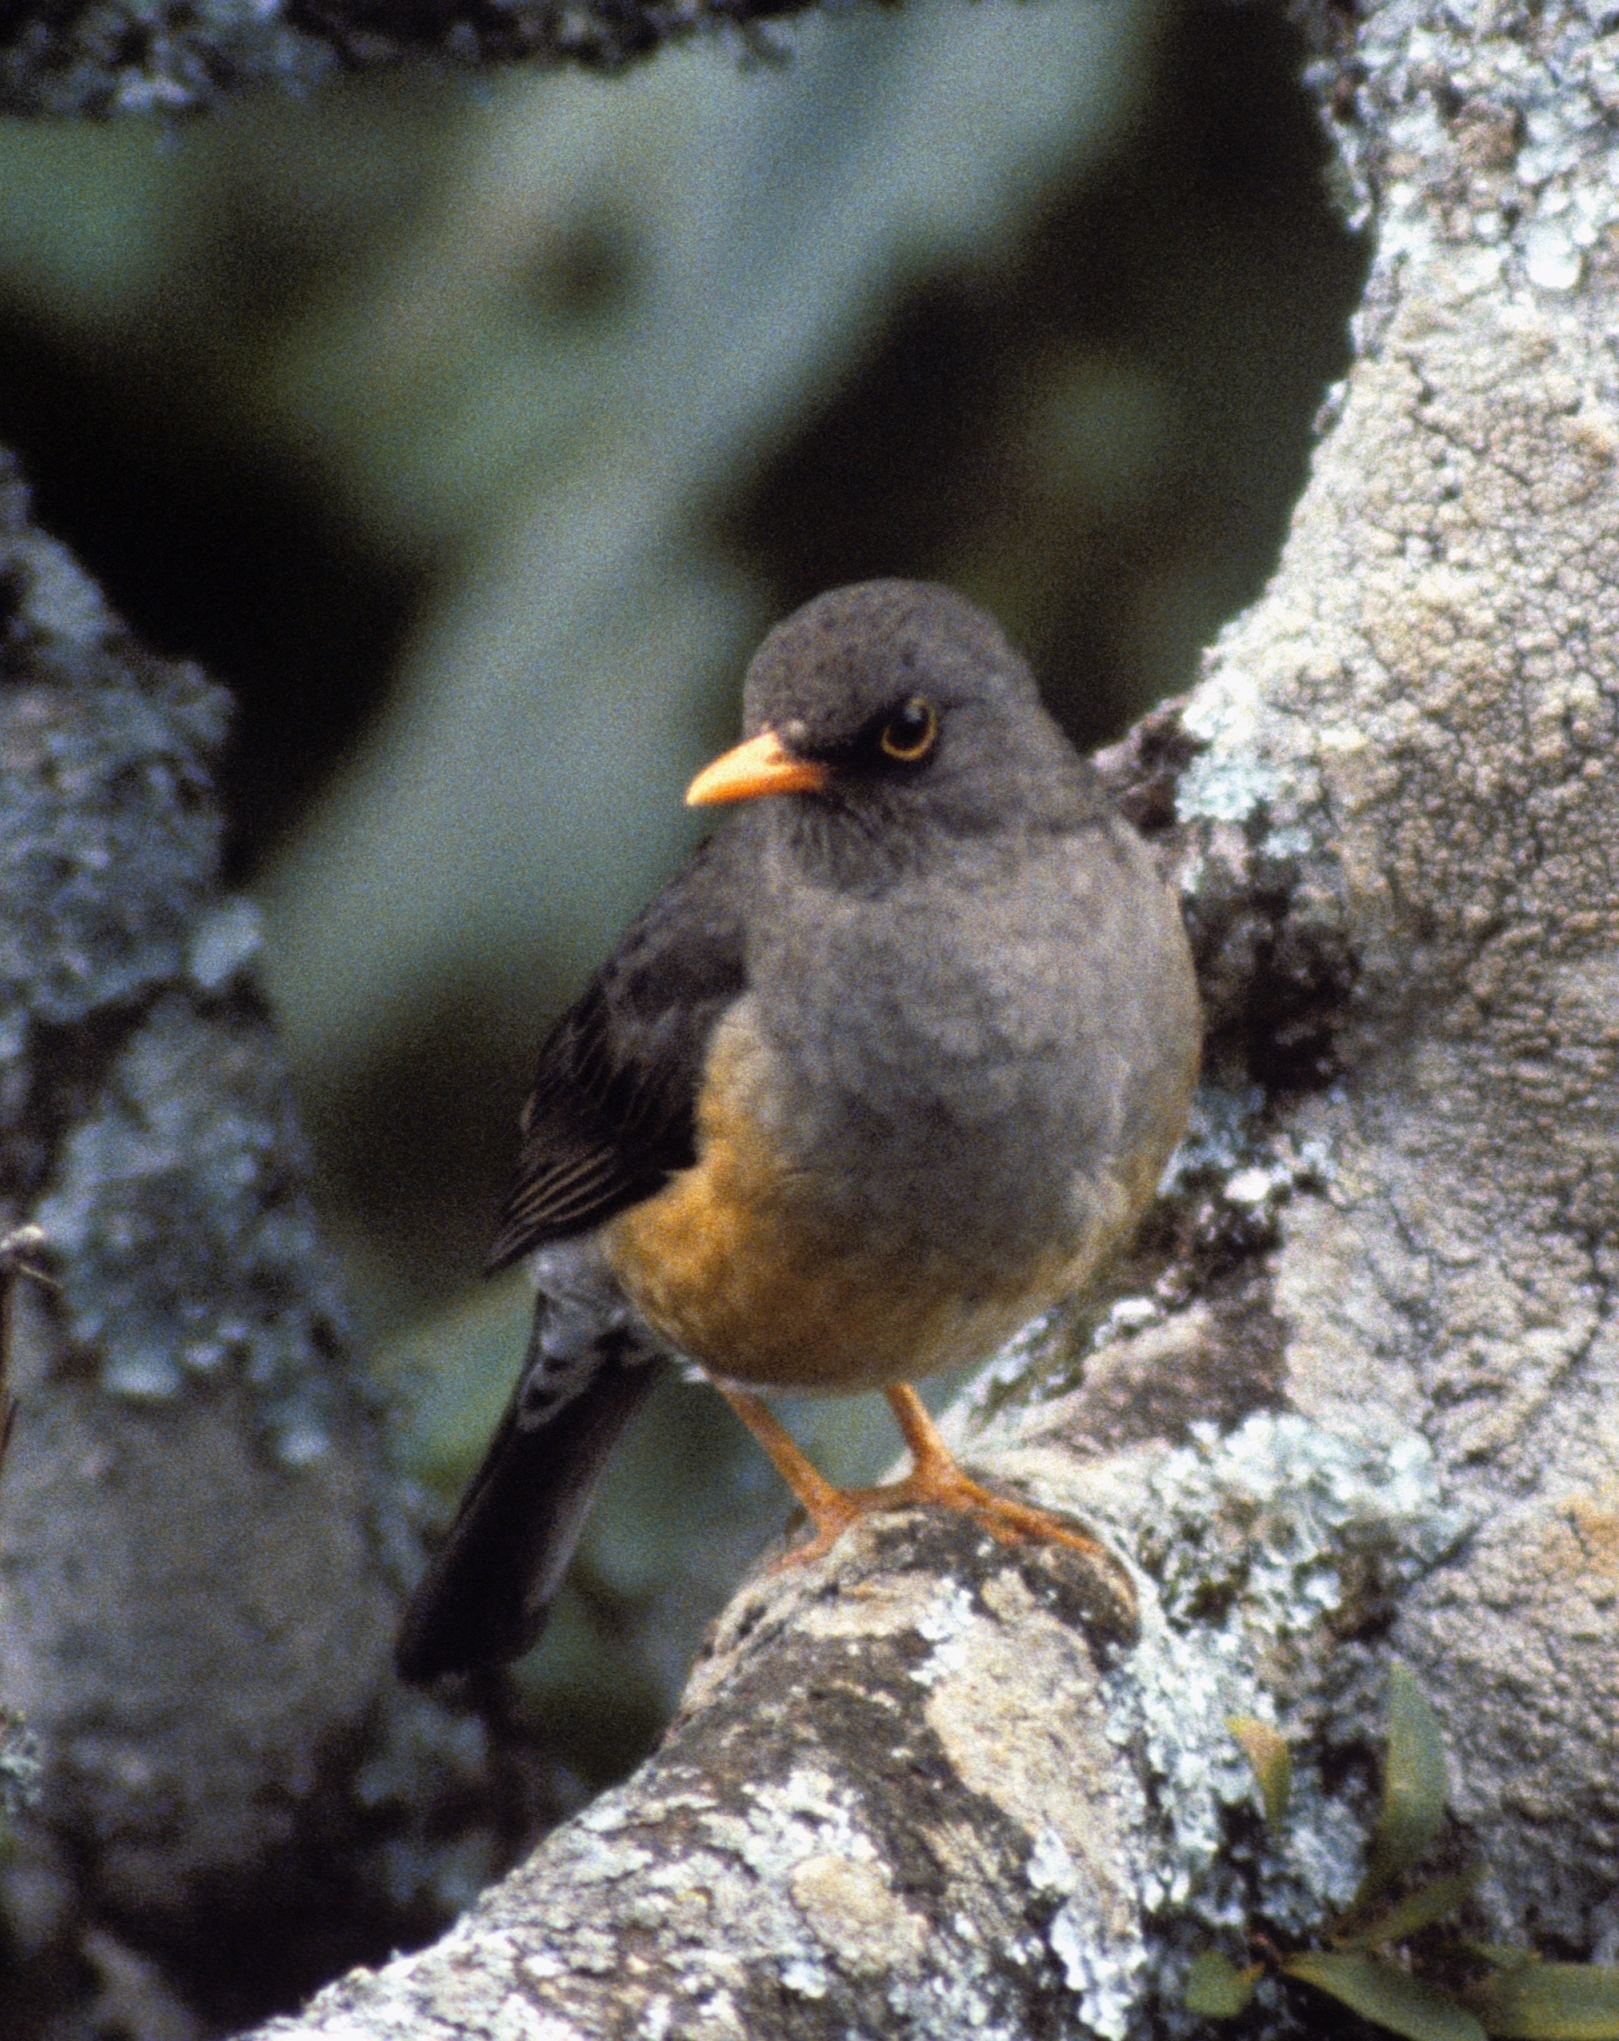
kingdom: Animalia
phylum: Chordata
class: Aves
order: Passeriformes
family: Turdidae
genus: Turdus
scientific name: Turdus abyssinicus
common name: Abyssinian thrush
